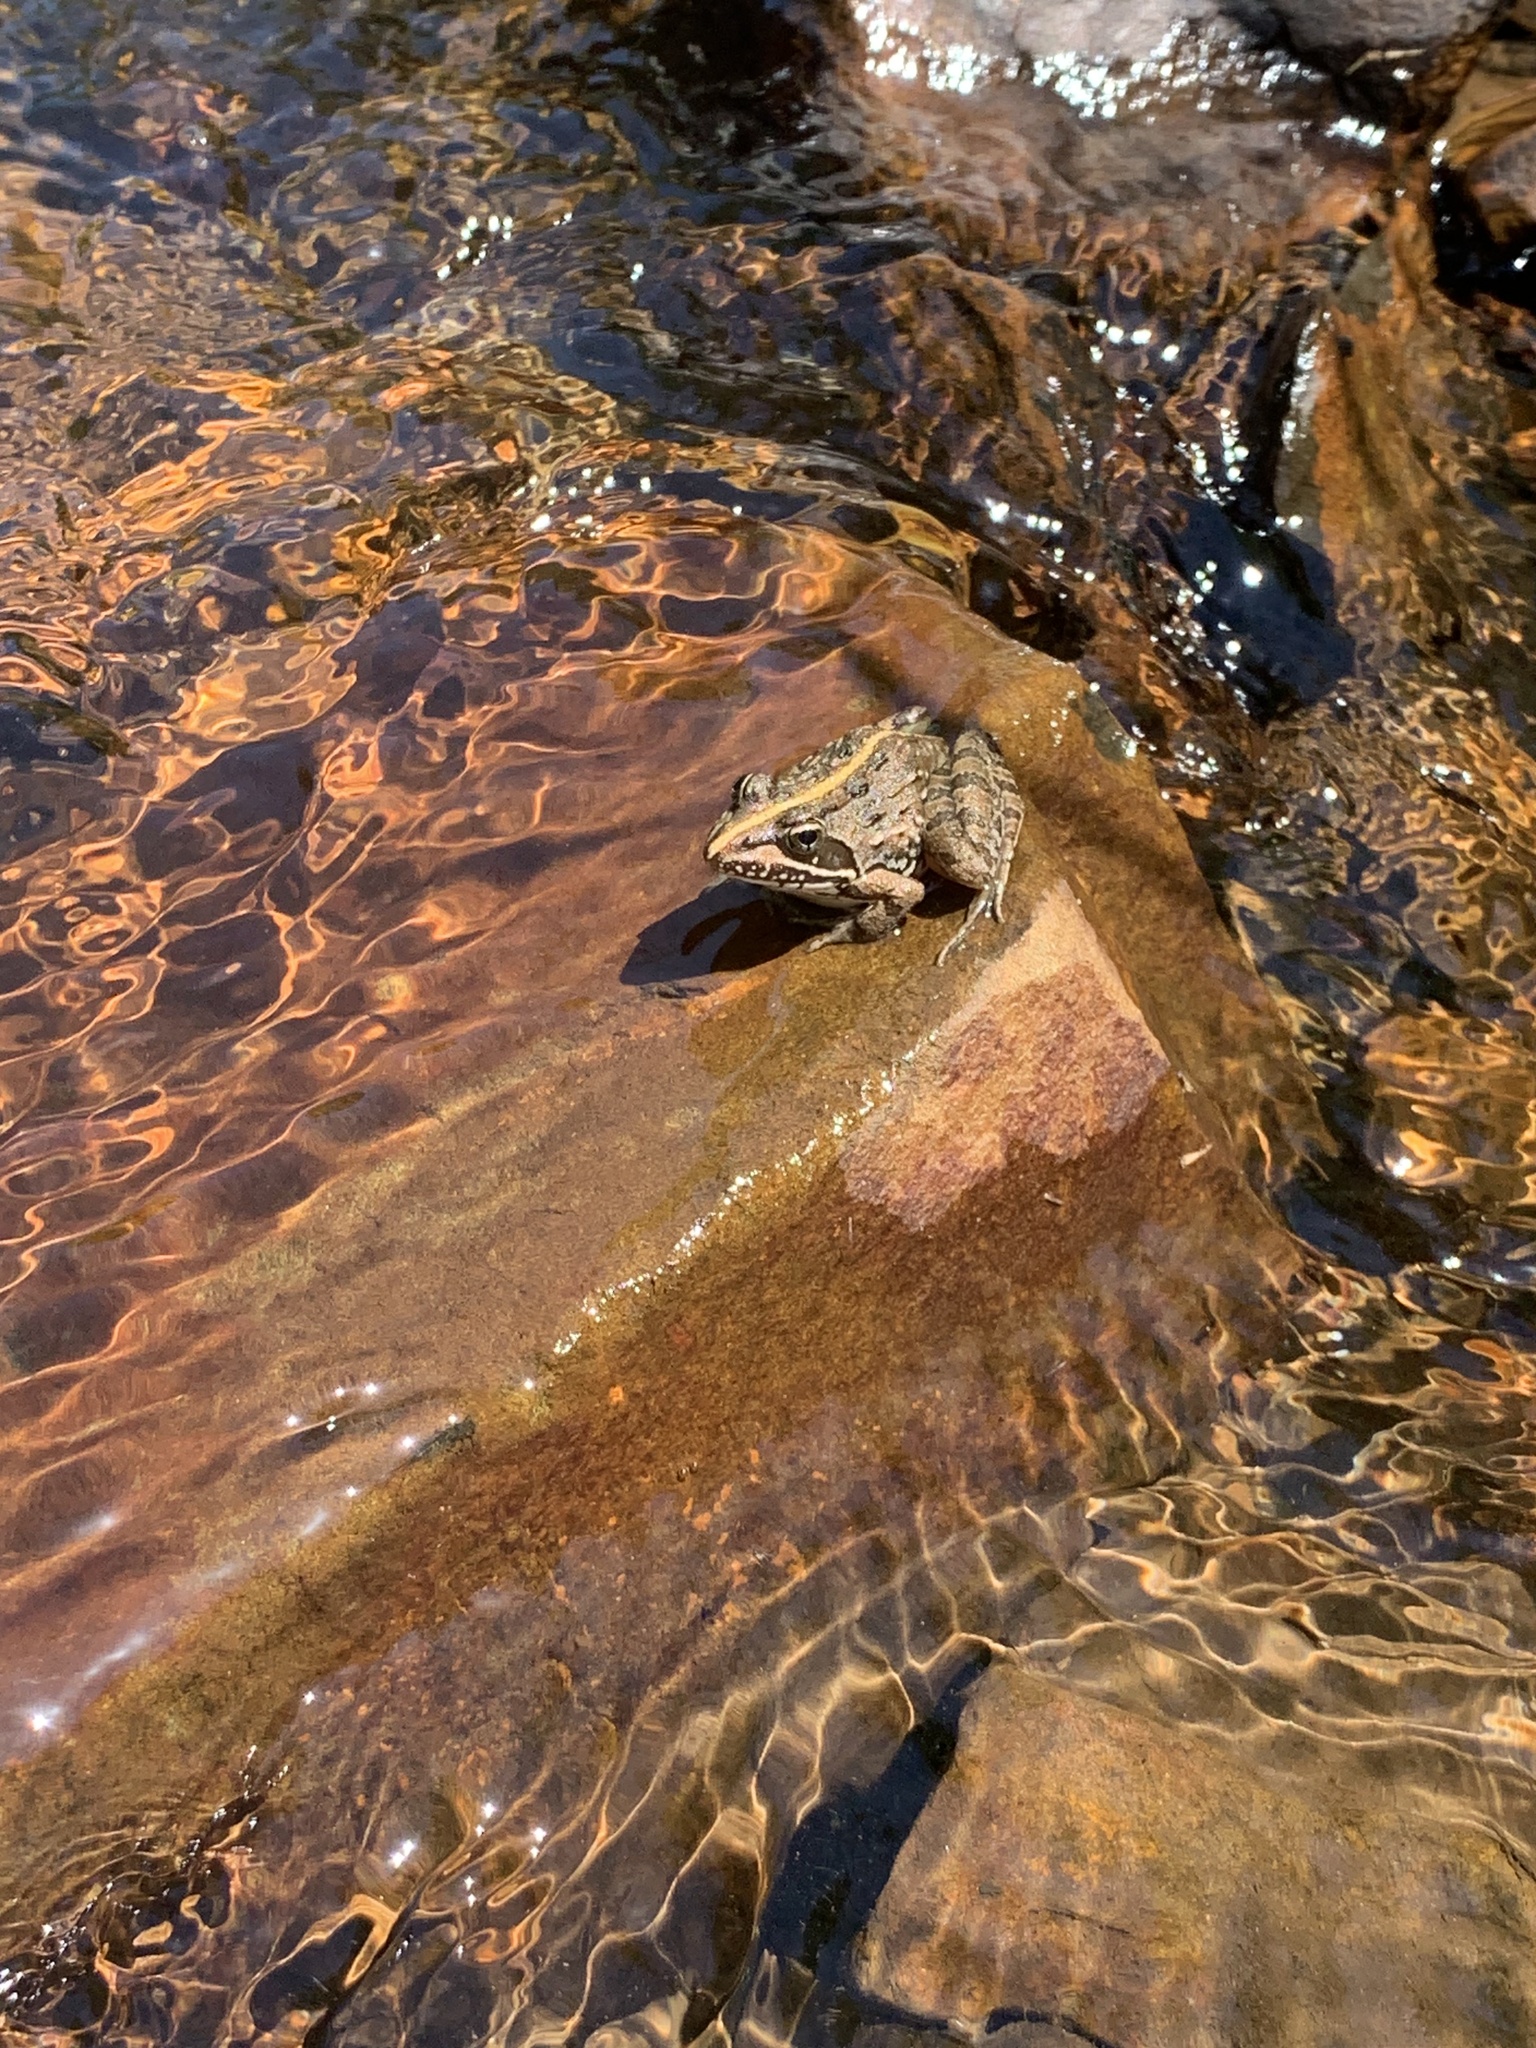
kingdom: Animalia
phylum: Chordata
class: Amphibia
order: Anura
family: Pyxicephalidae
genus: Amietia
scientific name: Amietia delalandii
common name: Delalande's river frog
